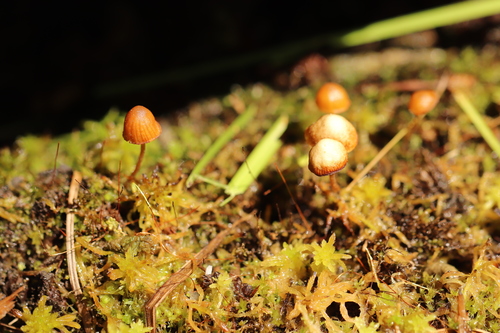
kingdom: Fungi
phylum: Basidiomycota
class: Agaricomycetes
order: Agaricales
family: Hymenogastraceae
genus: Galerina
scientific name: Galerina sphagnorum
